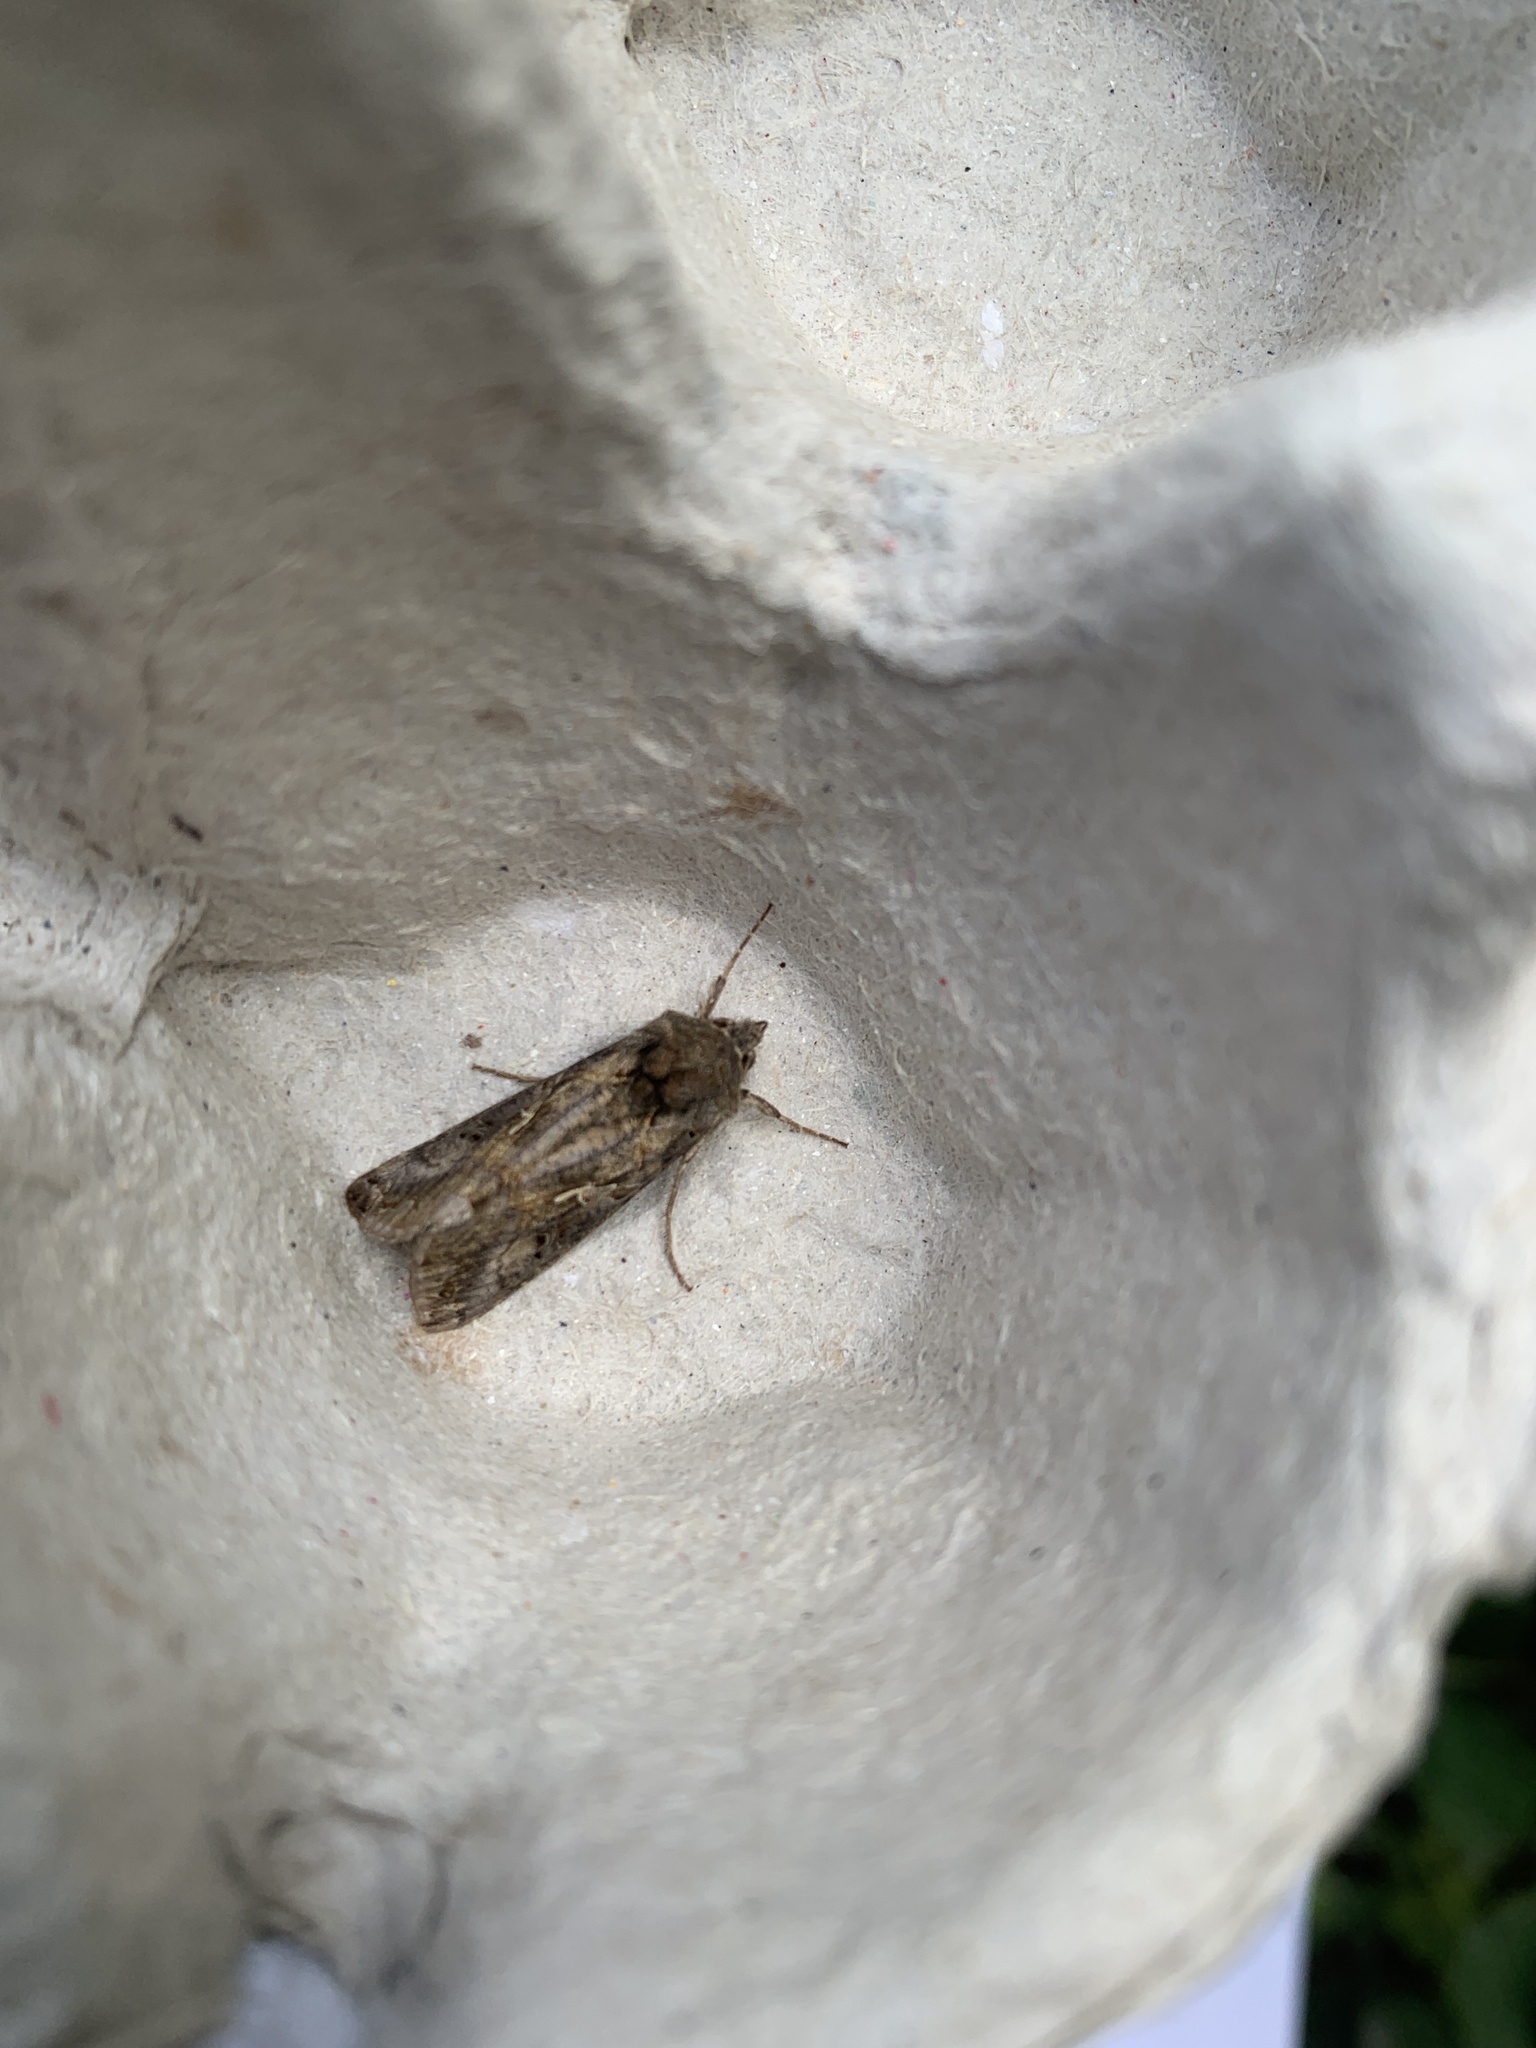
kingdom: Animalia
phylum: Arthropoda
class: Insecta
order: Lepidoptera
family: Noctuidae
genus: Autographa
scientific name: Autographa gamma
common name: Silver y
